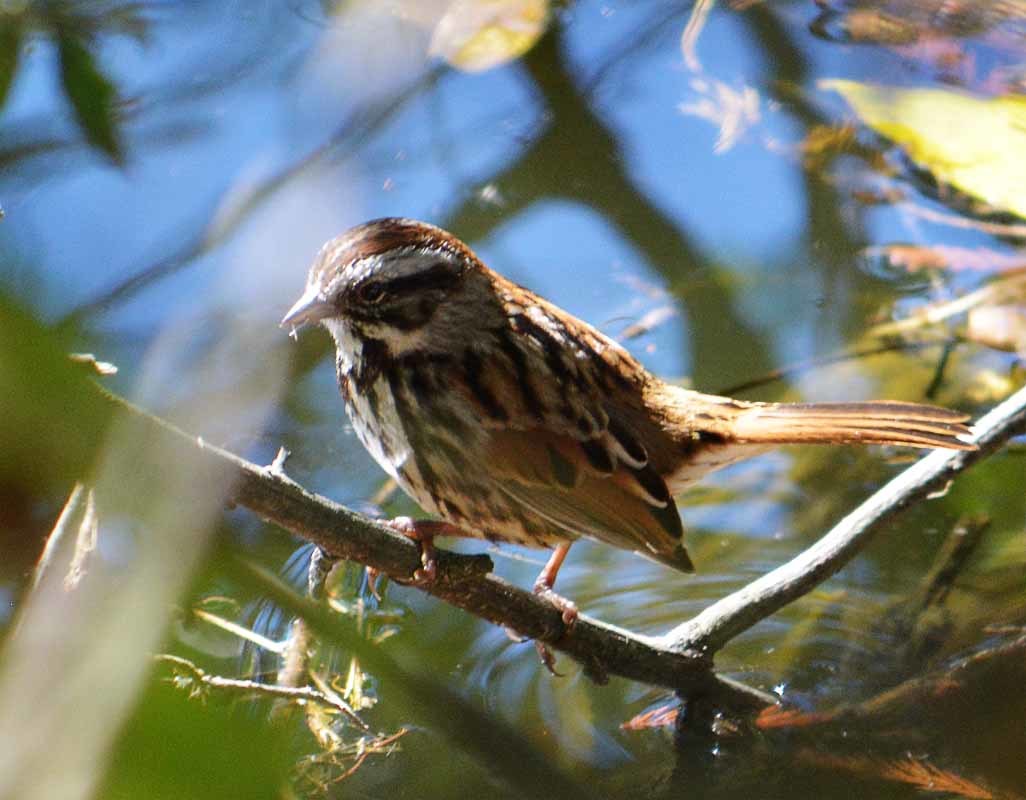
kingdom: Animalia
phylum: Chordata
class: Aves
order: Passeriformes
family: Passerellidae
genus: Melospiza
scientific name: Melospiza melodia
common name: Song sparrow
